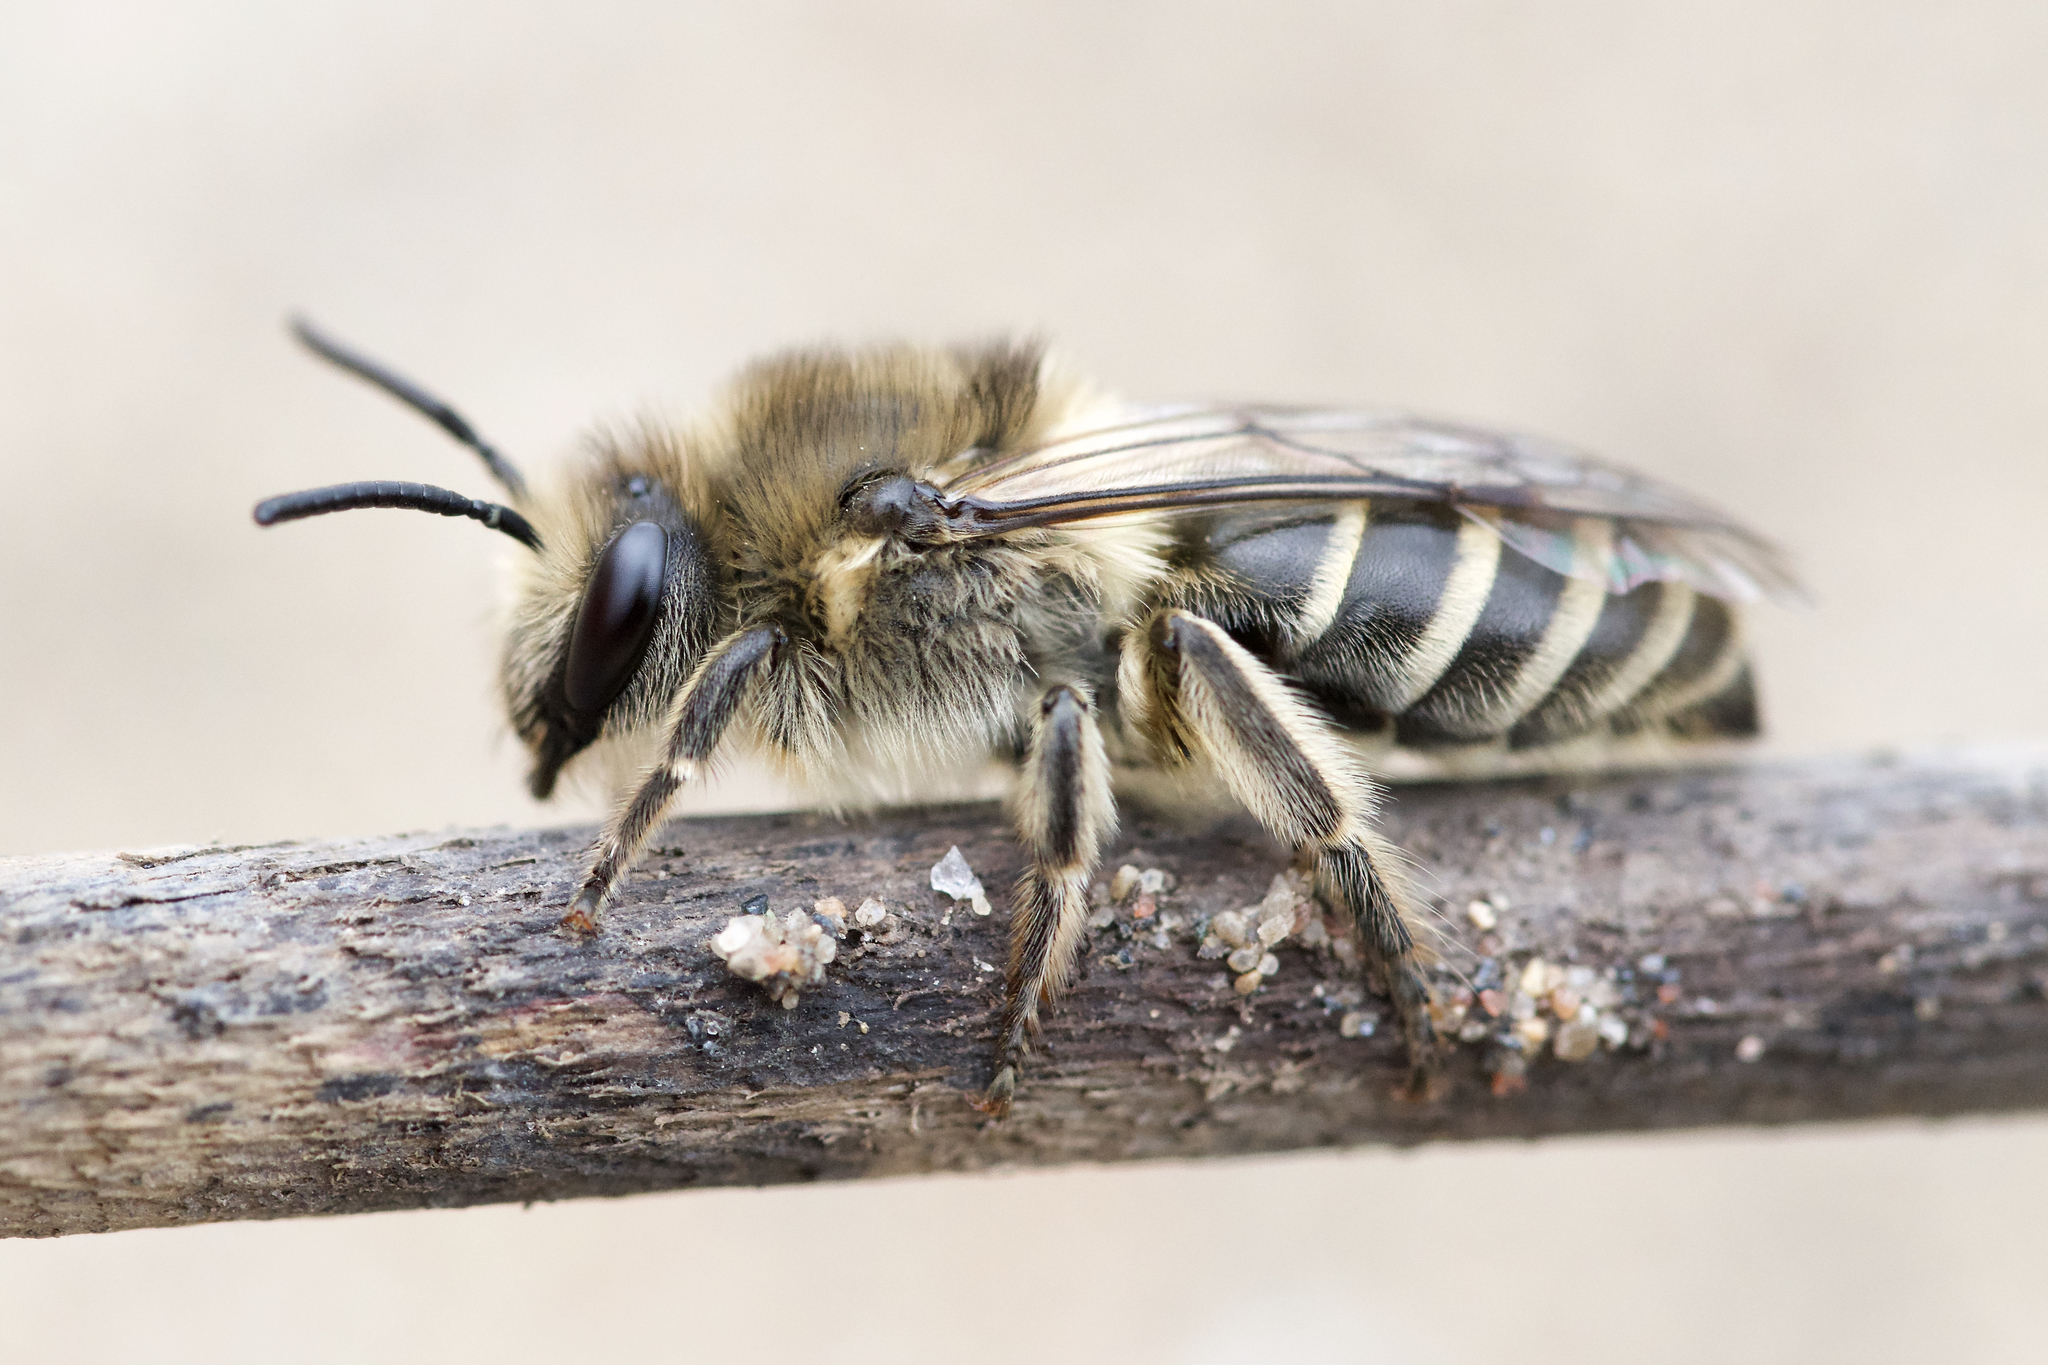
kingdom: Animalia
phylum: Arthropoda
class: Insecta
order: Hymenoptera
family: Colletidae
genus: Colletes
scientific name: Colletes inaequalis
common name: Unequal cellophane bee
